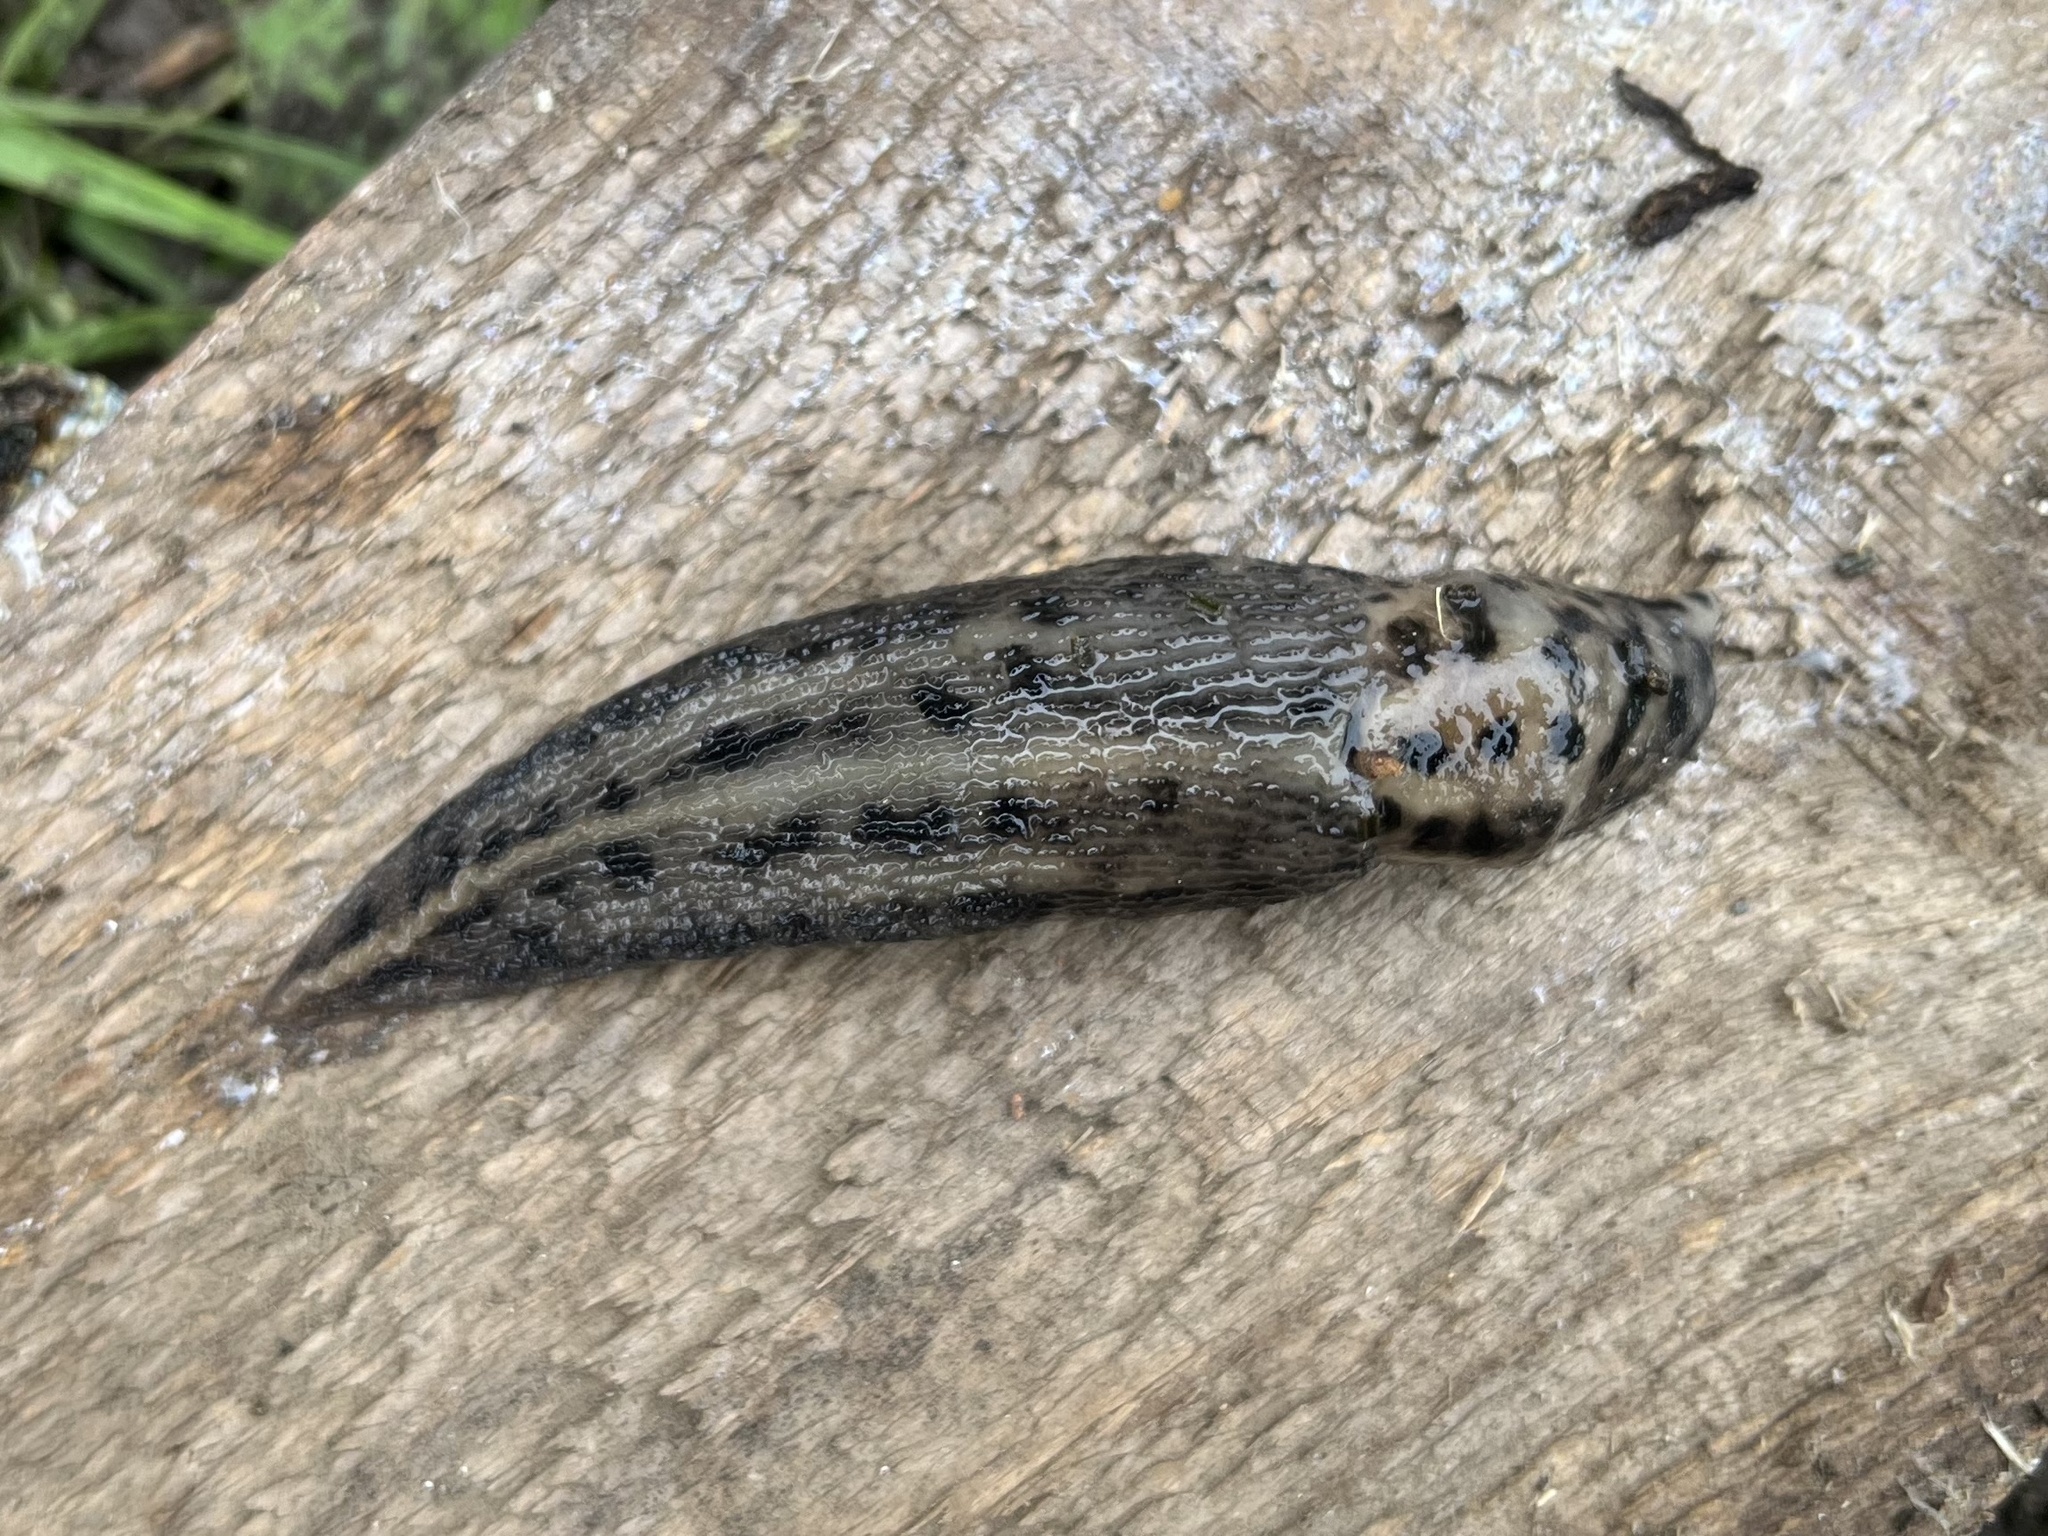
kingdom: Animalia
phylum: Mollusca
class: Gastropoda
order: Stylommatophora
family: Limacidae
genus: Limax
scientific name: Limax maximus
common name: Great grey slug
